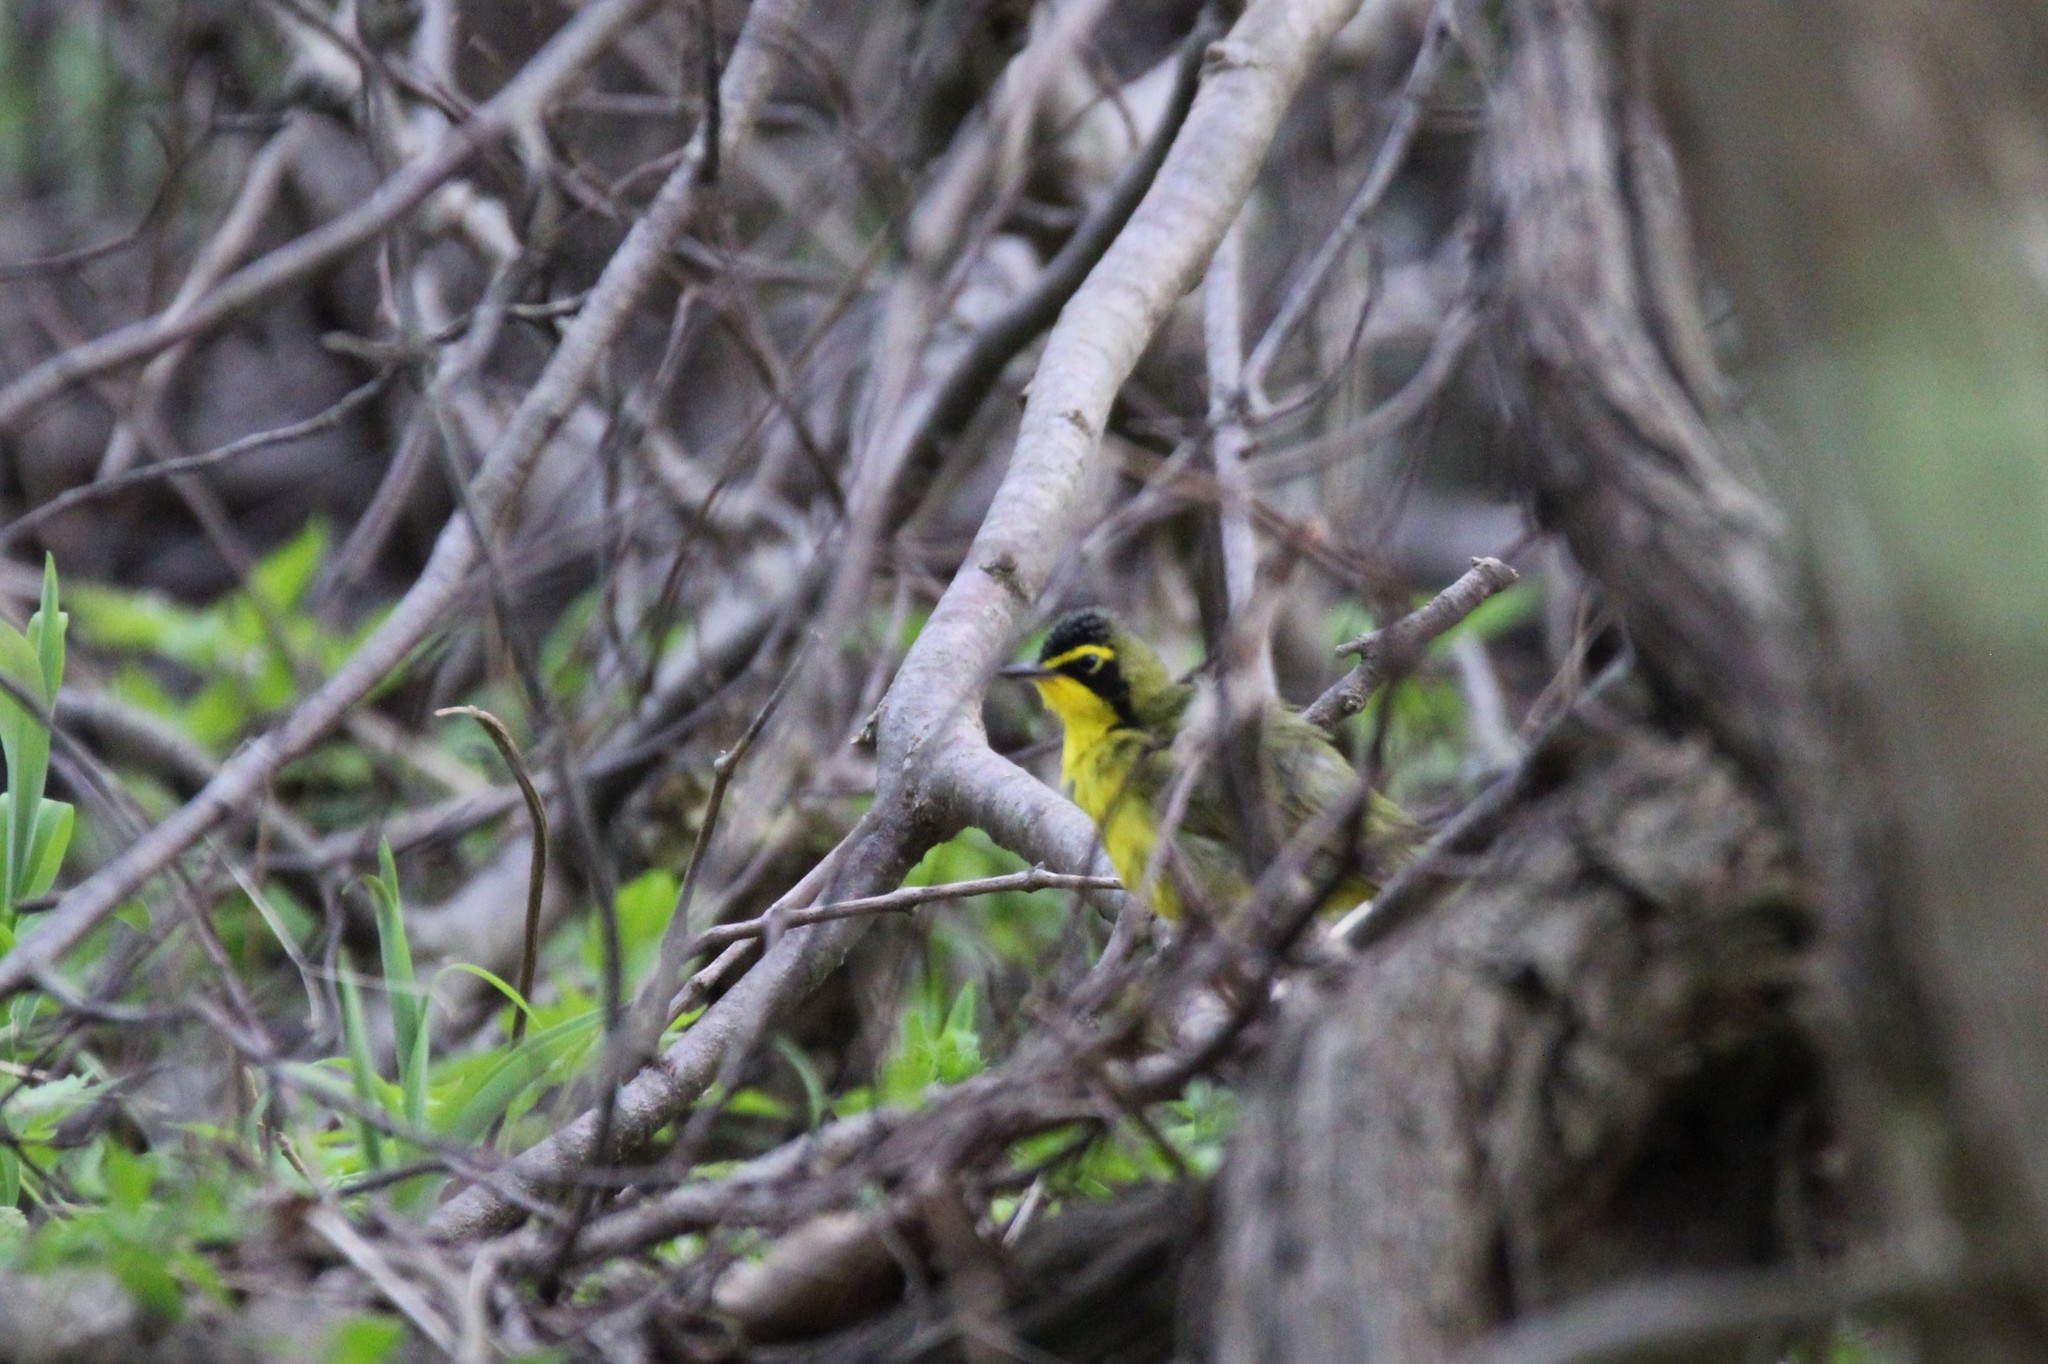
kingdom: Animalia
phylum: Chordata
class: Aves
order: Passeriformes
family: Parulidae
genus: Geothlypis
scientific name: Geothlypis formosa
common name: Kentucky warbler
